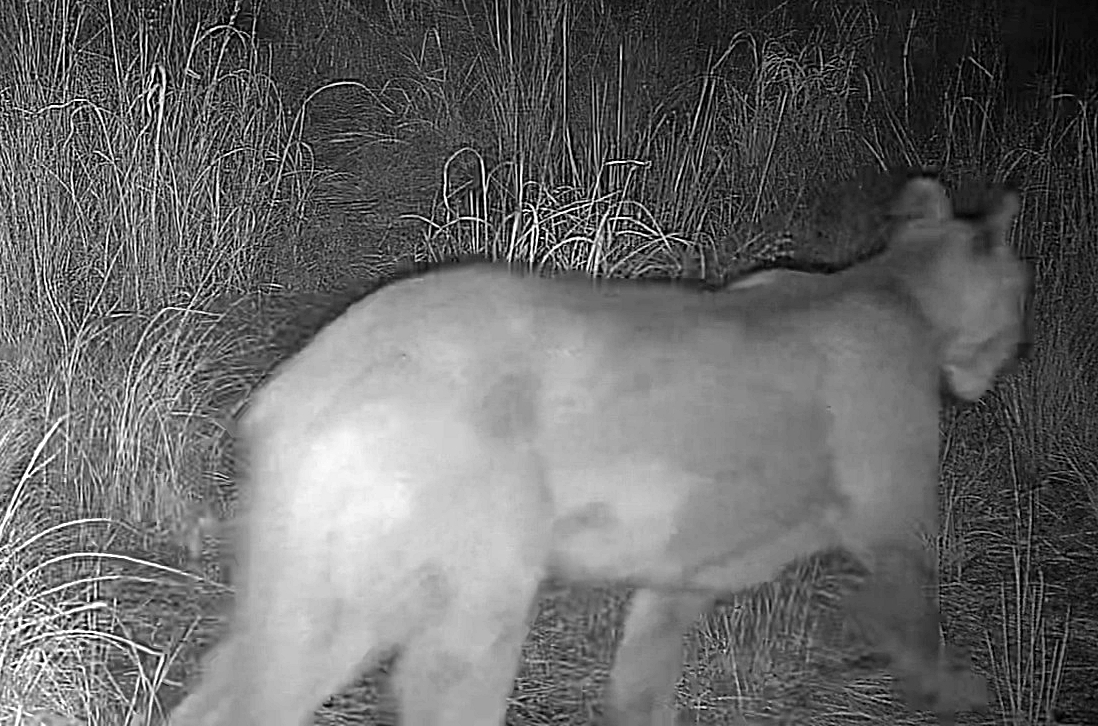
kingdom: Animalia
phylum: Chordata
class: Mammalia
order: Carnivora
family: Felidae
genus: Puma
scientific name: Puma concolor
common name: Puma
